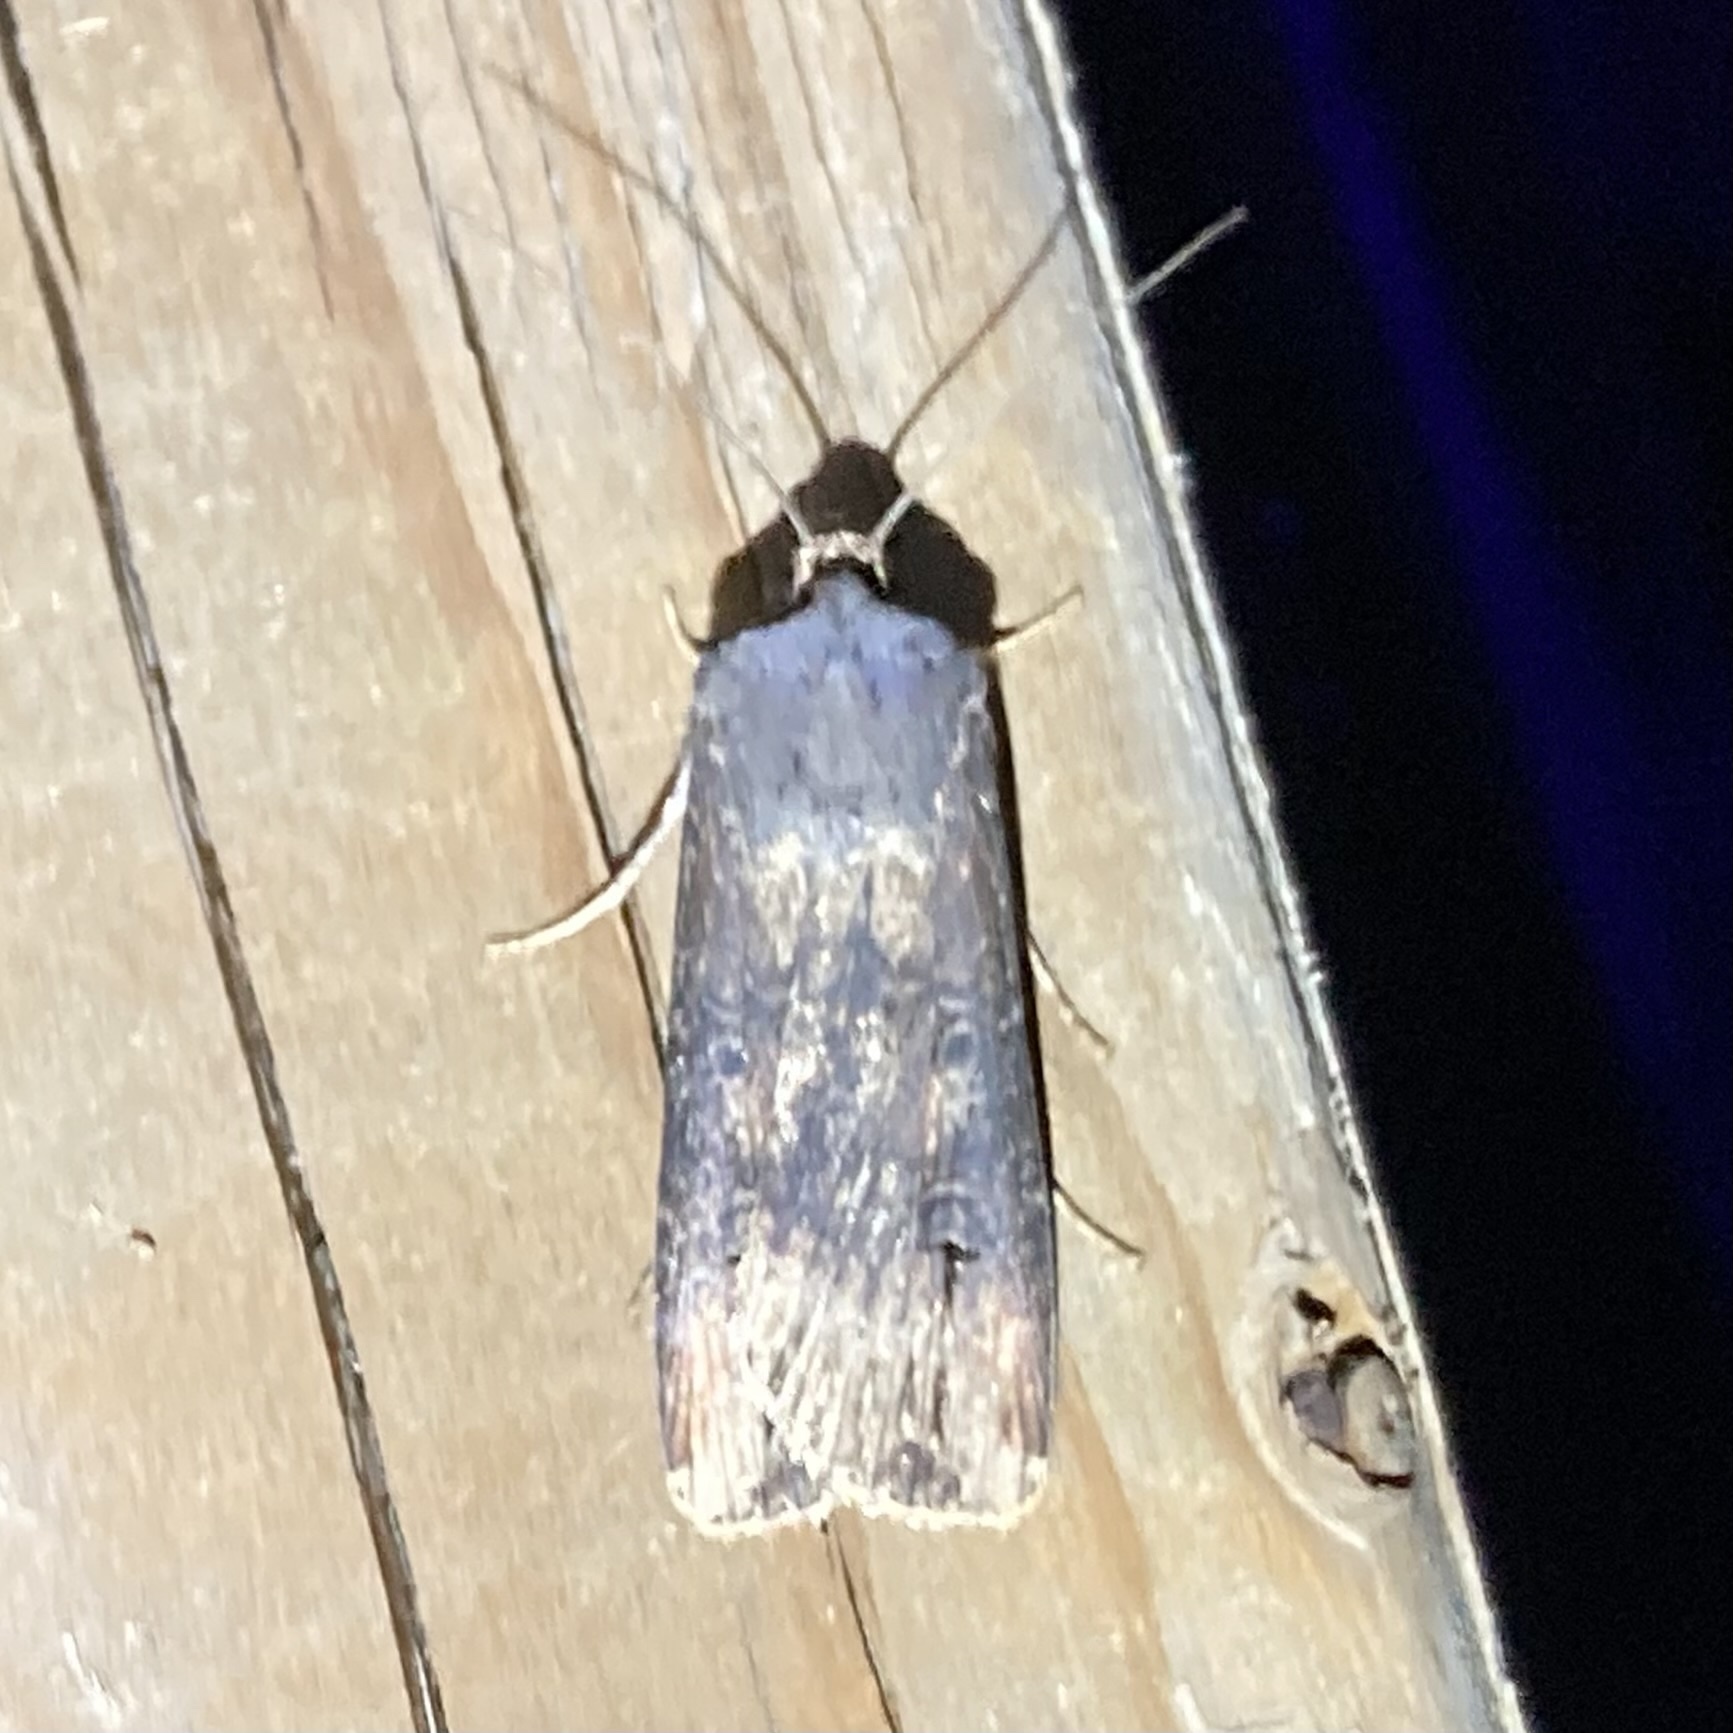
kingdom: Animalia
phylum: Arthropoda
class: Insecta
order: Lepidoptera
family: Noctuidae
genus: Agrotis
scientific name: Agrotis ipsilon
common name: Dark sword-grass
